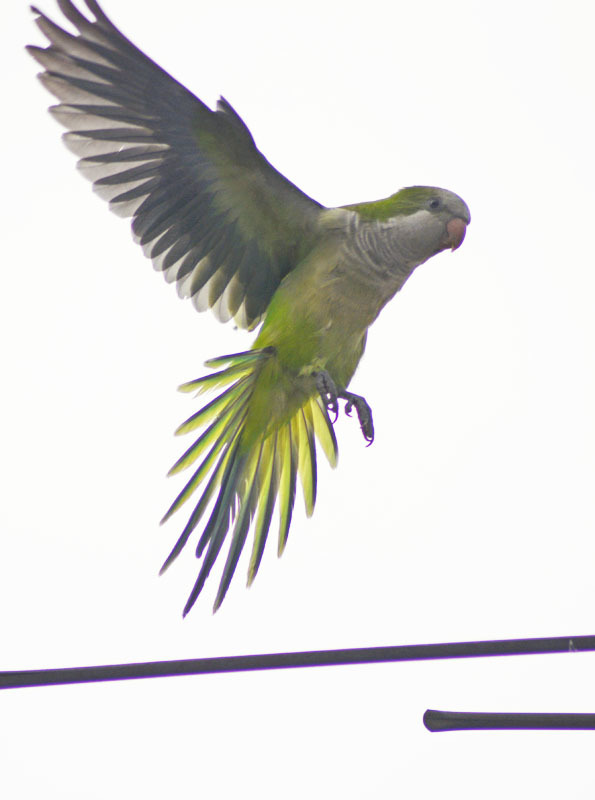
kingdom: Animalia
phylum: Chordata
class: Aves
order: Psittaciformes
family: Psittacidae
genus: Myiopsitta
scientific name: Myiopsitta monachus
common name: Monk parakeet
